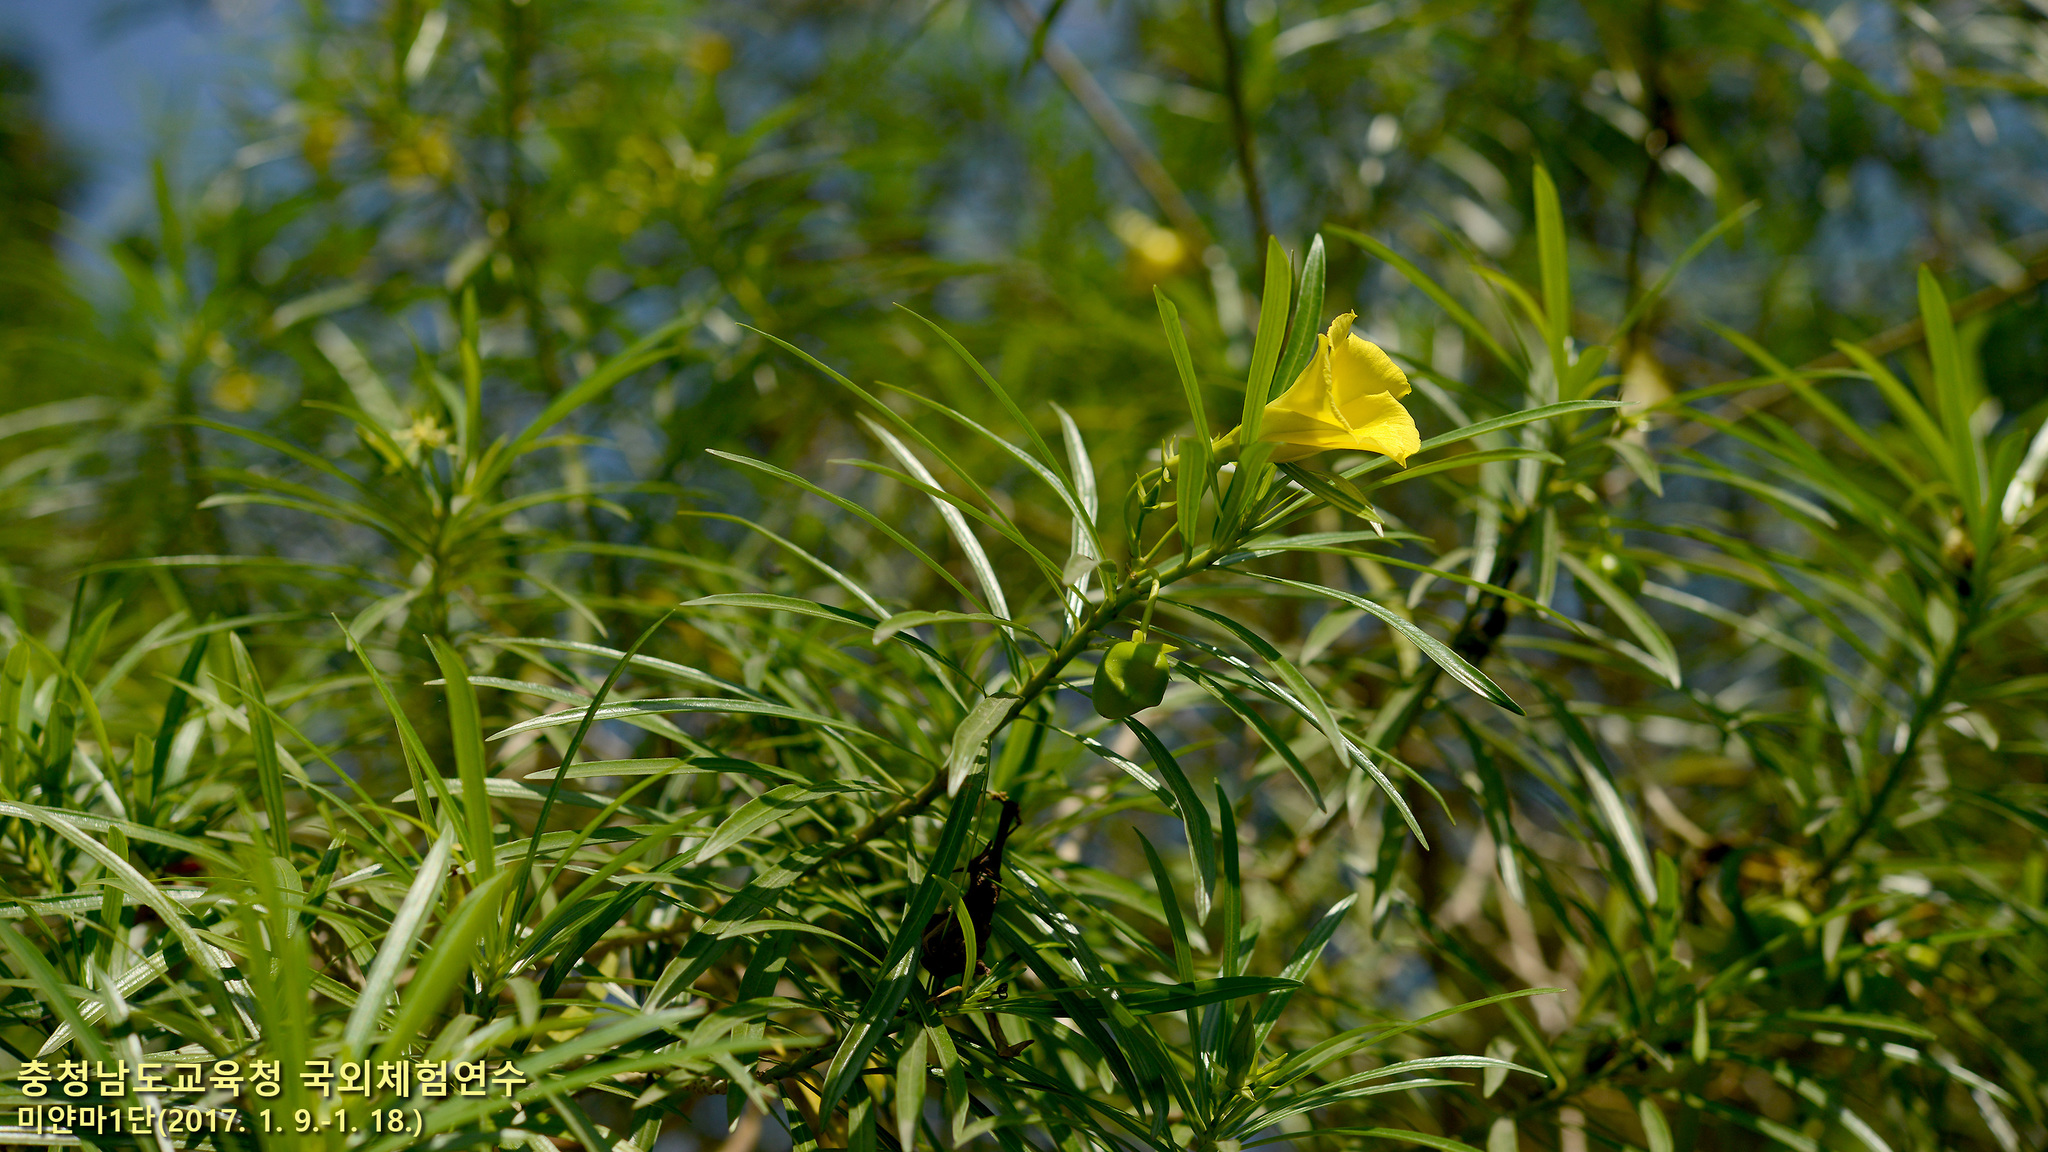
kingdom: Plantae
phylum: Tracheophyta
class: Magnoliopsida
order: Gentianales
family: Apocynaceae
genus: Cascabela
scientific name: Cascabela thevetia
